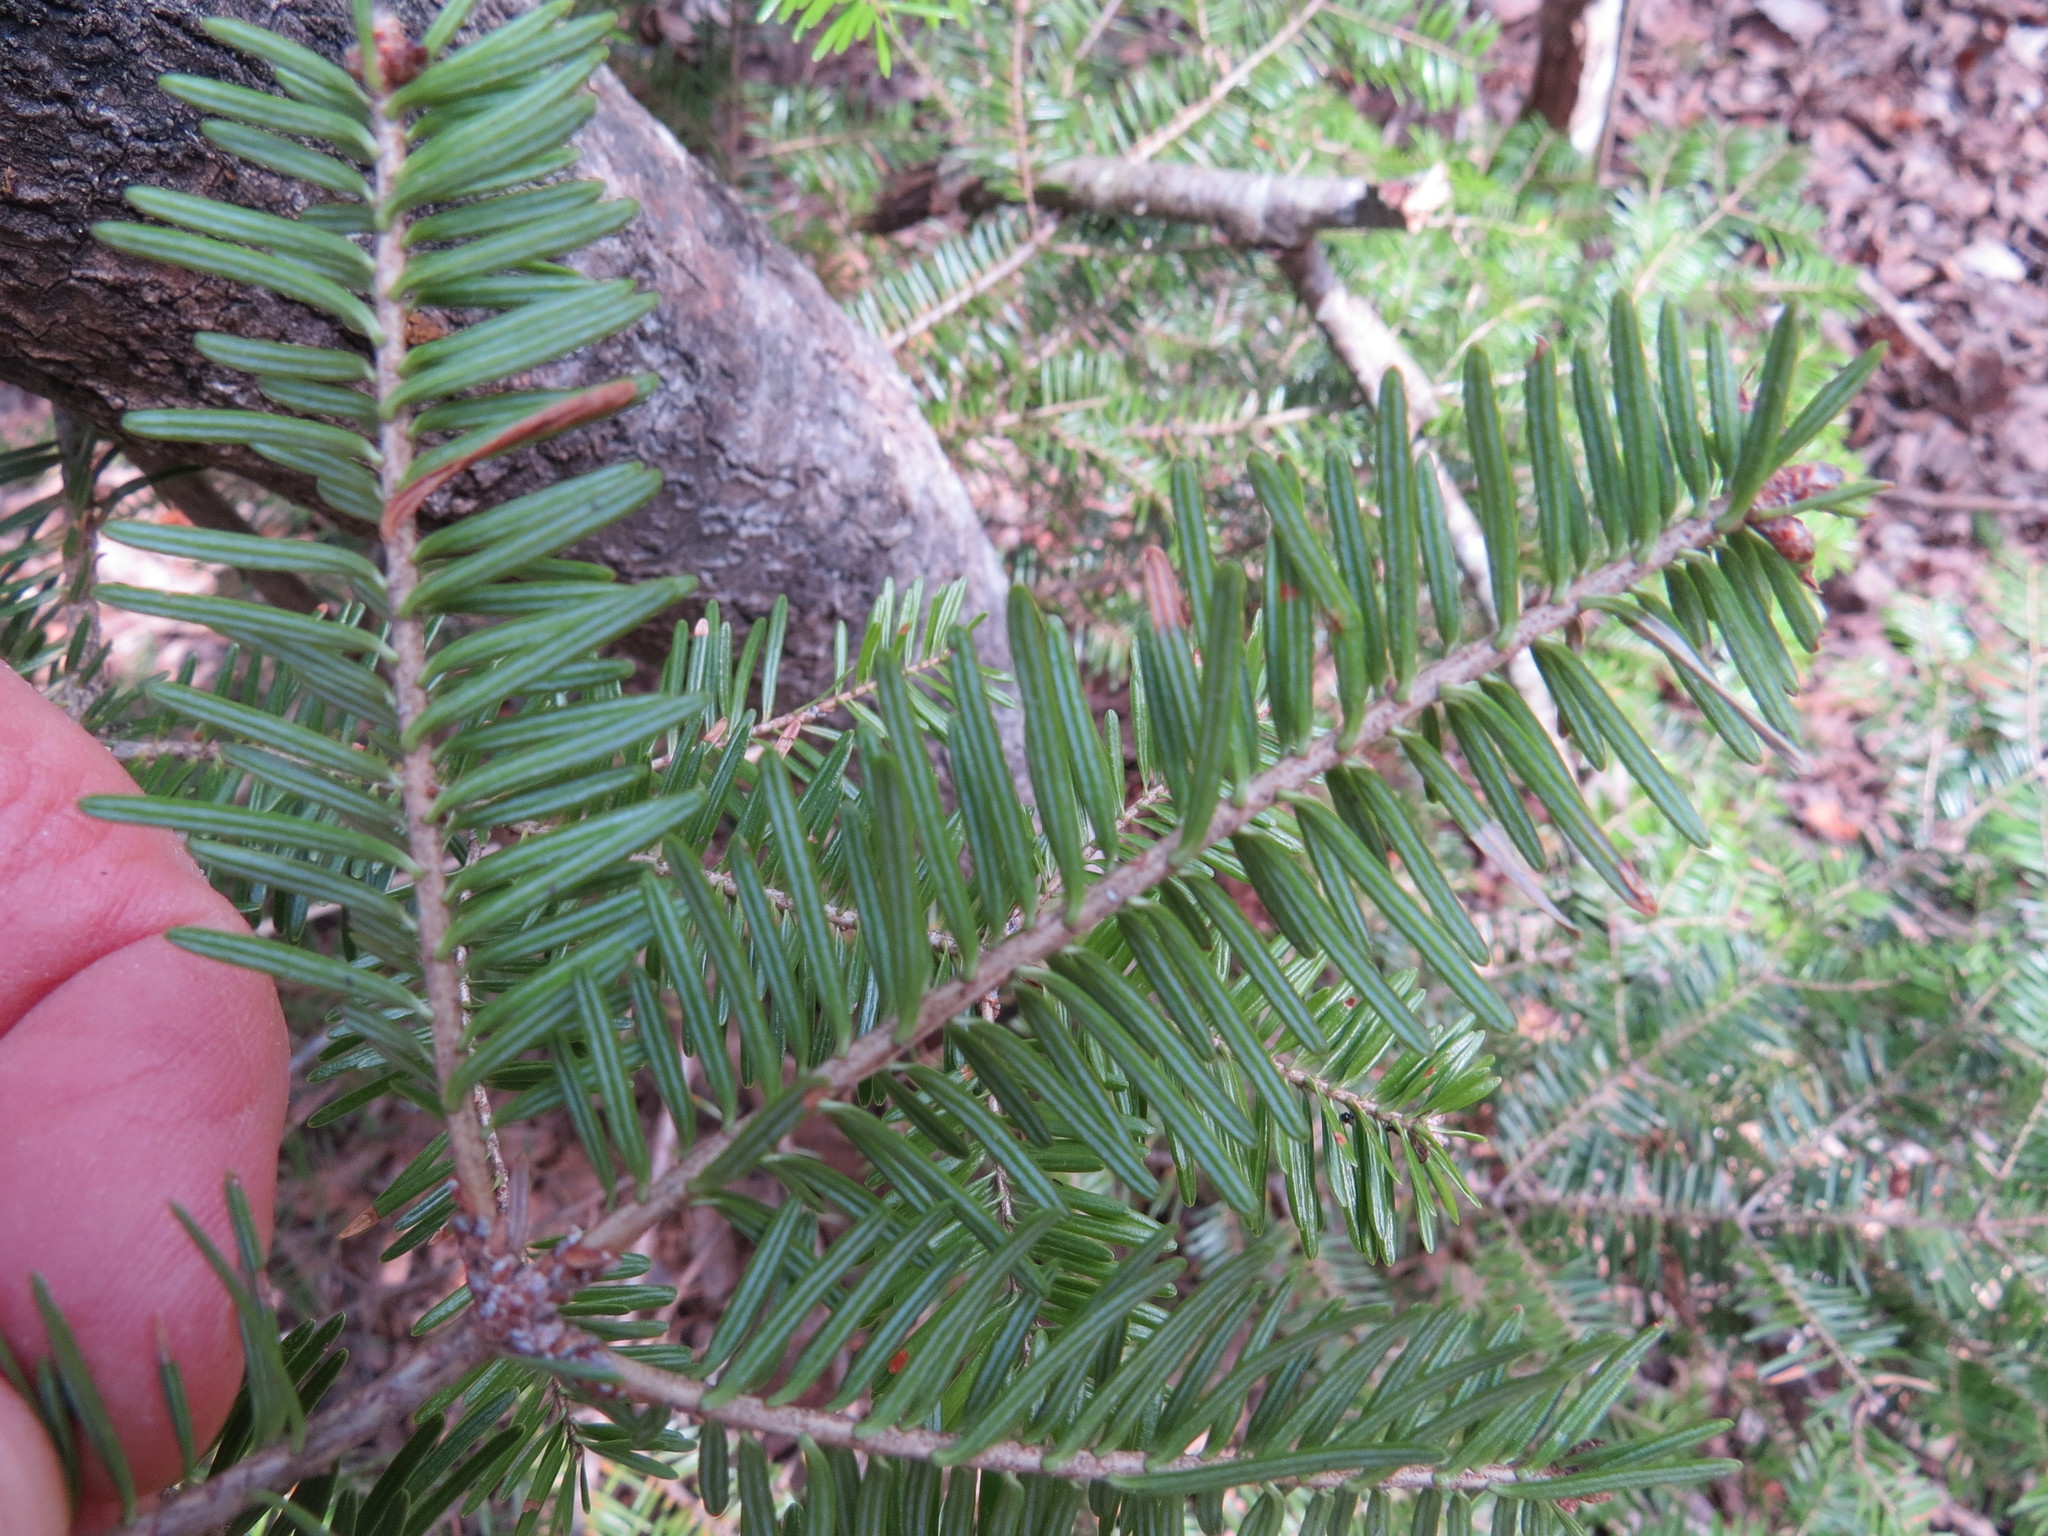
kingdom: Plantae
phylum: Tracheophyta
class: Pinopsida
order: Pinales
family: Pinaceae
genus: Abies
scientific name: Abies balsamea
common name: Balsam fir
